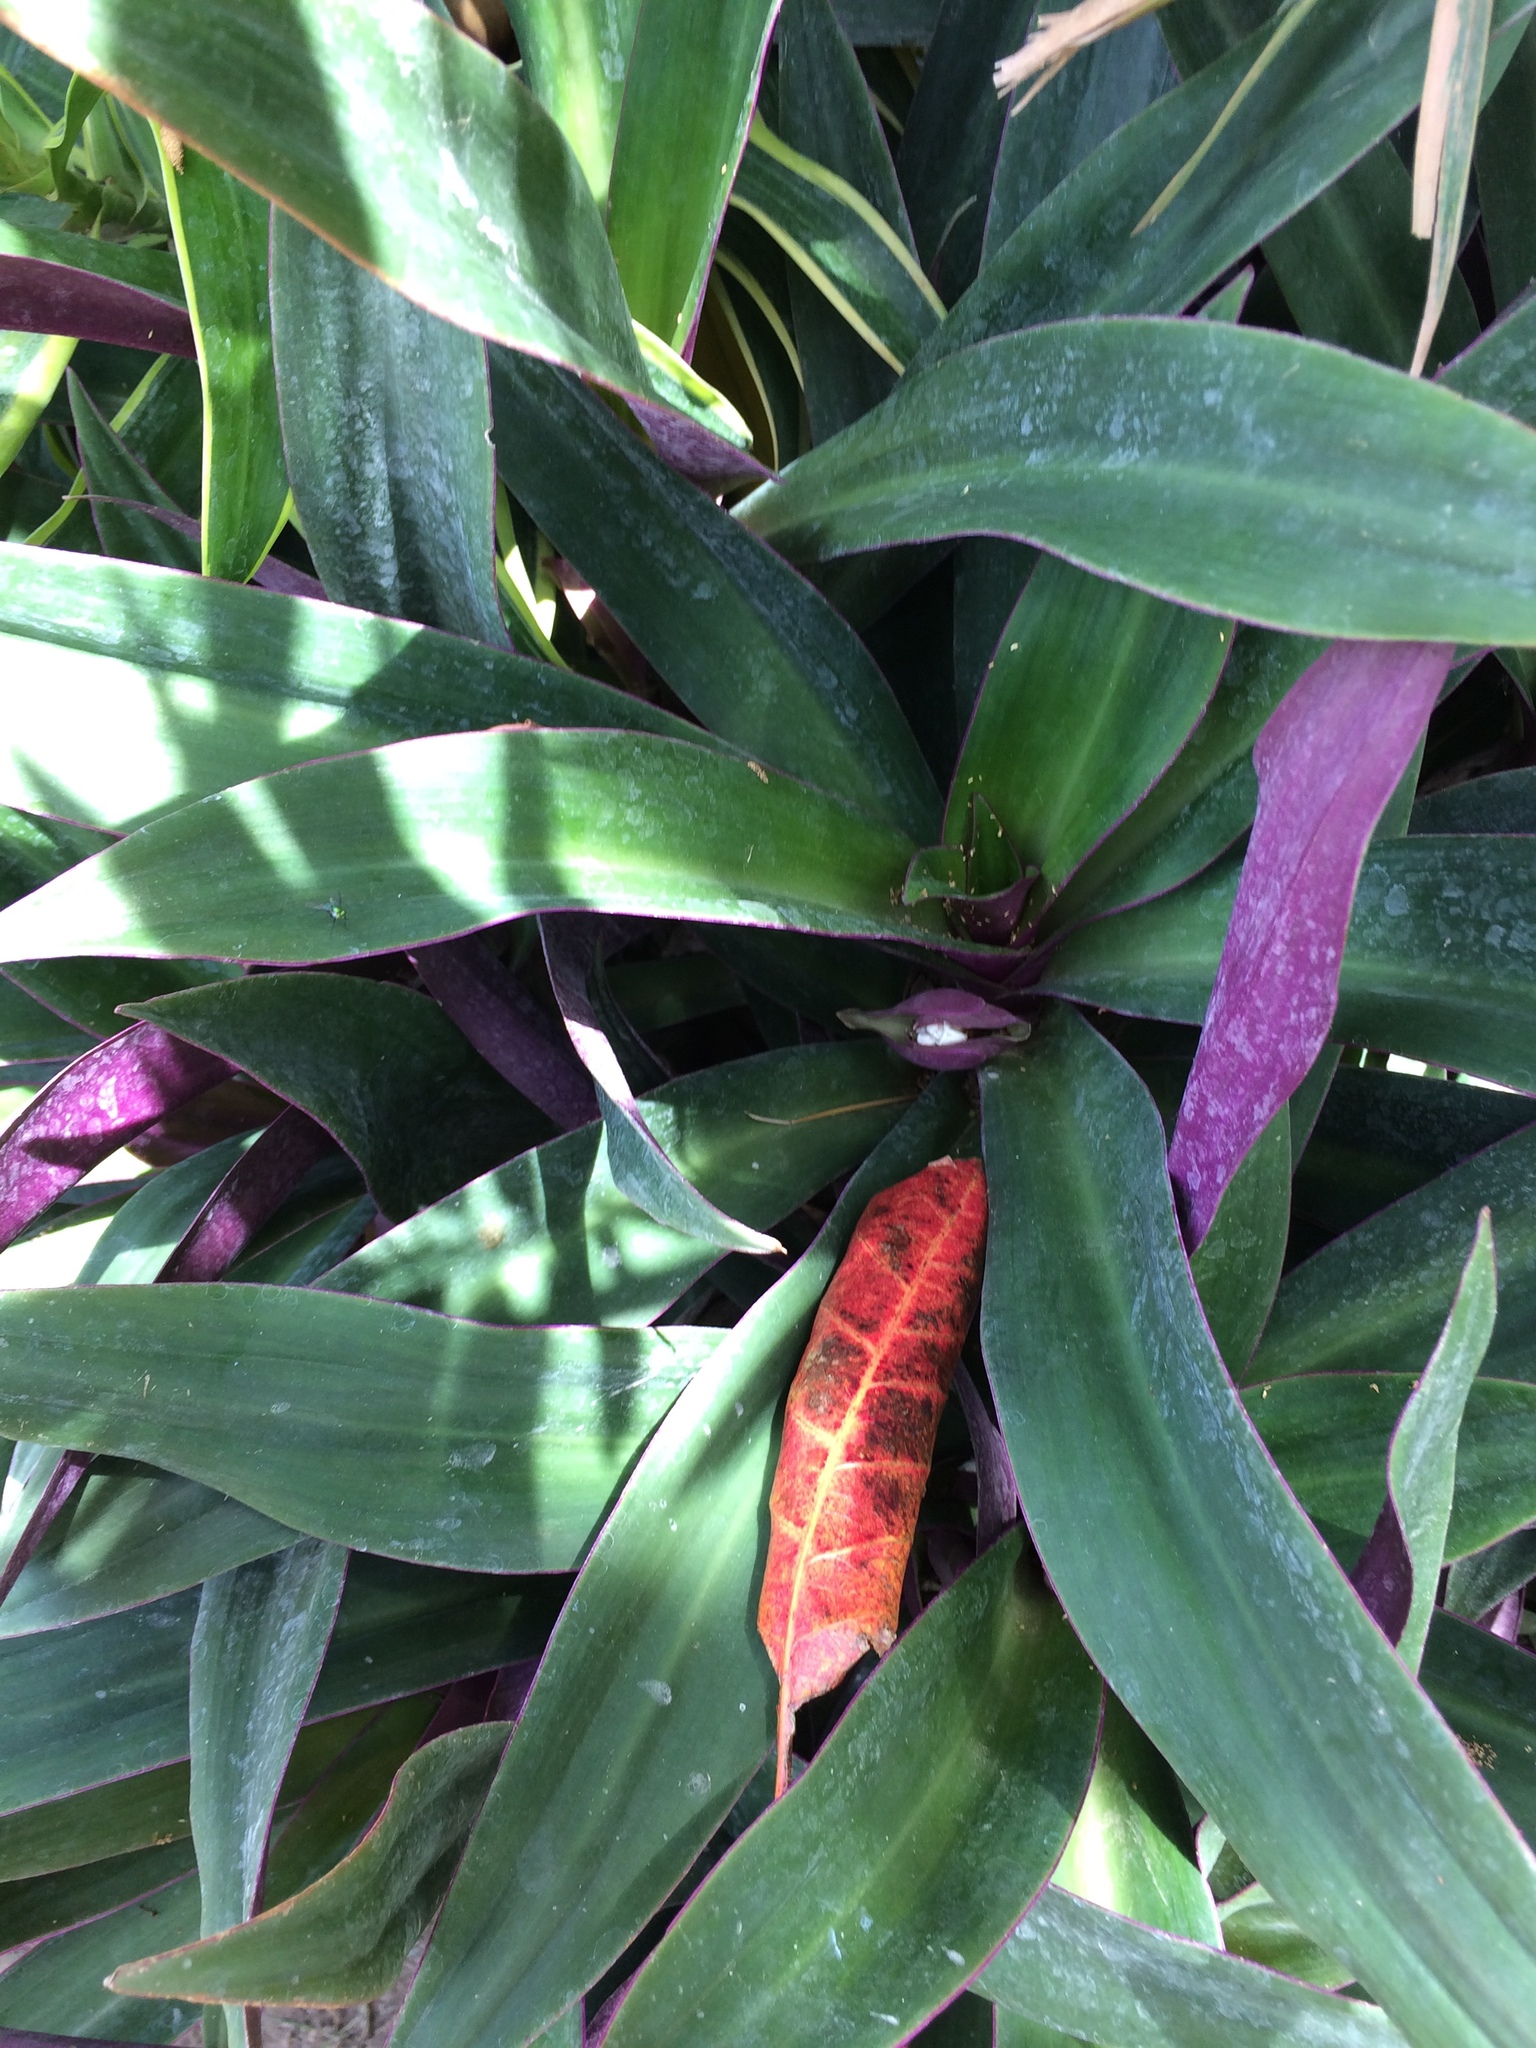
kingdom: Plantae
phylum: Tracheophyta
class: Liliopsida
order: Commelinales
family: Commelinaceae
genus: Tradescantia
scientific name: Tradescantia spathacea
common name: Boatlily
